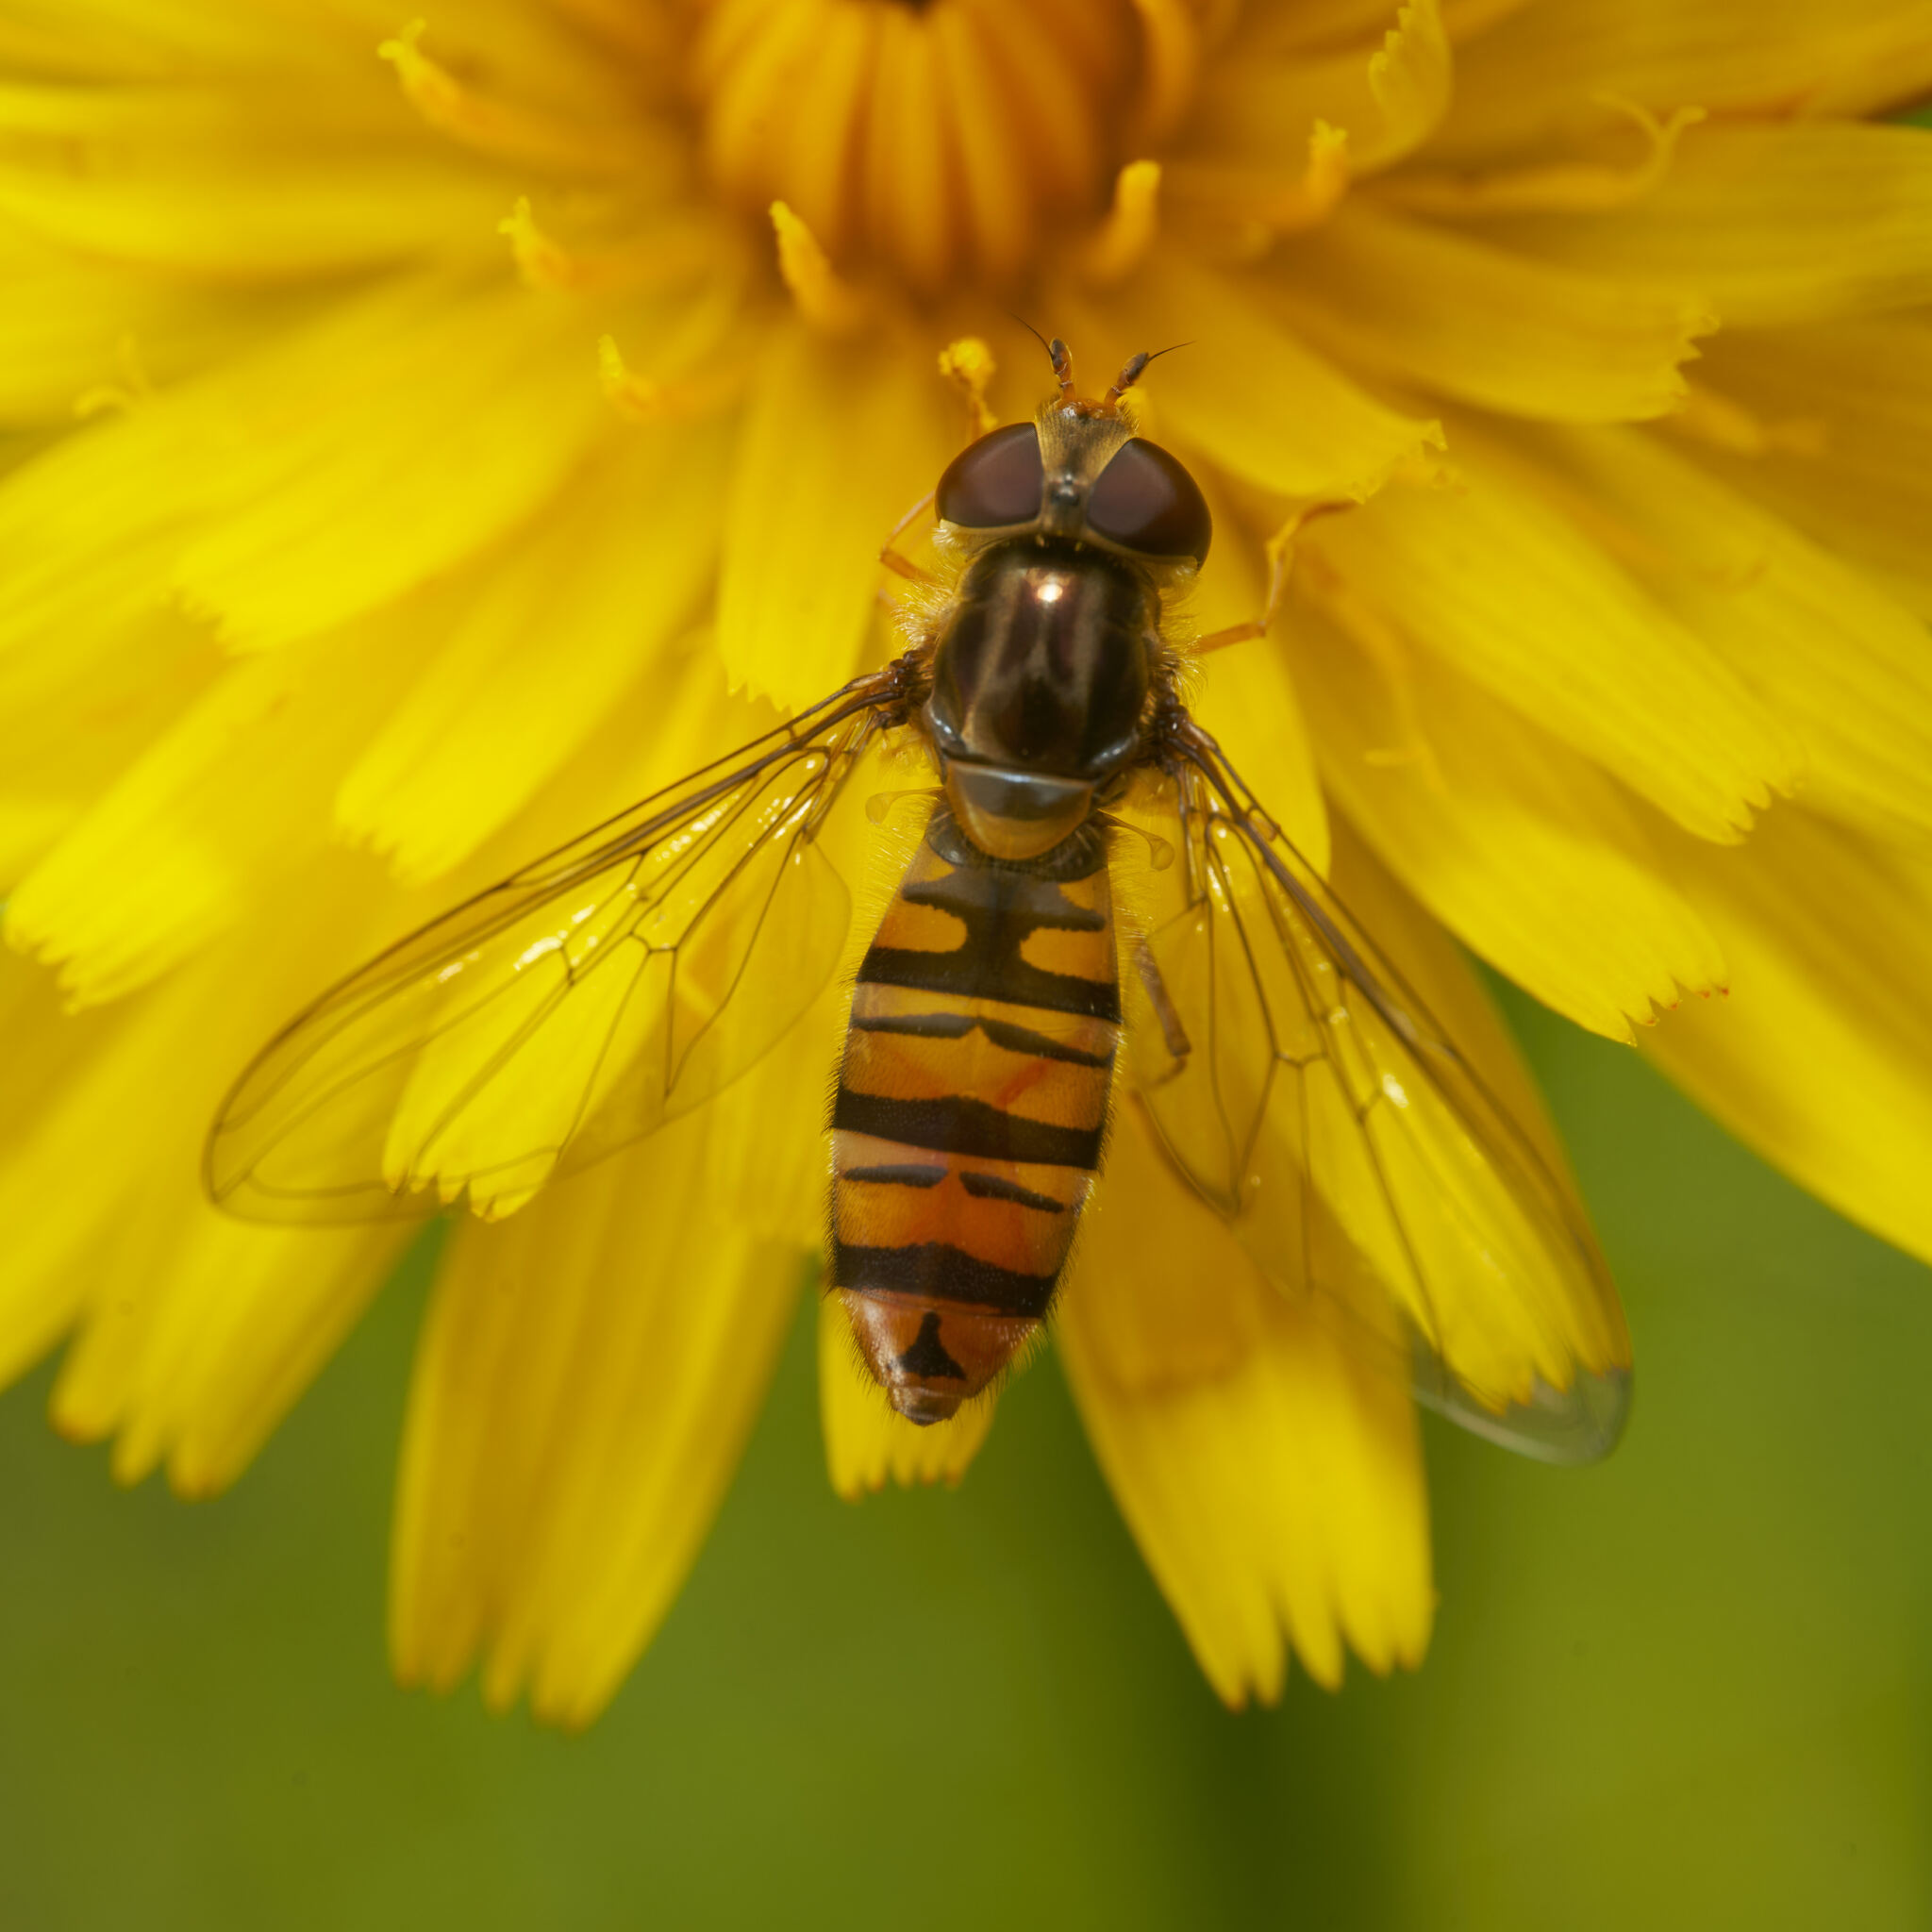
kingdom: Animalia
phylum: Arthropoda
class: Insecta
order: Diptera
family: Syrphidae
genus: Episyrphus
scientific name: Episyrphus balteatus
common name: Marmalade hoverfly
